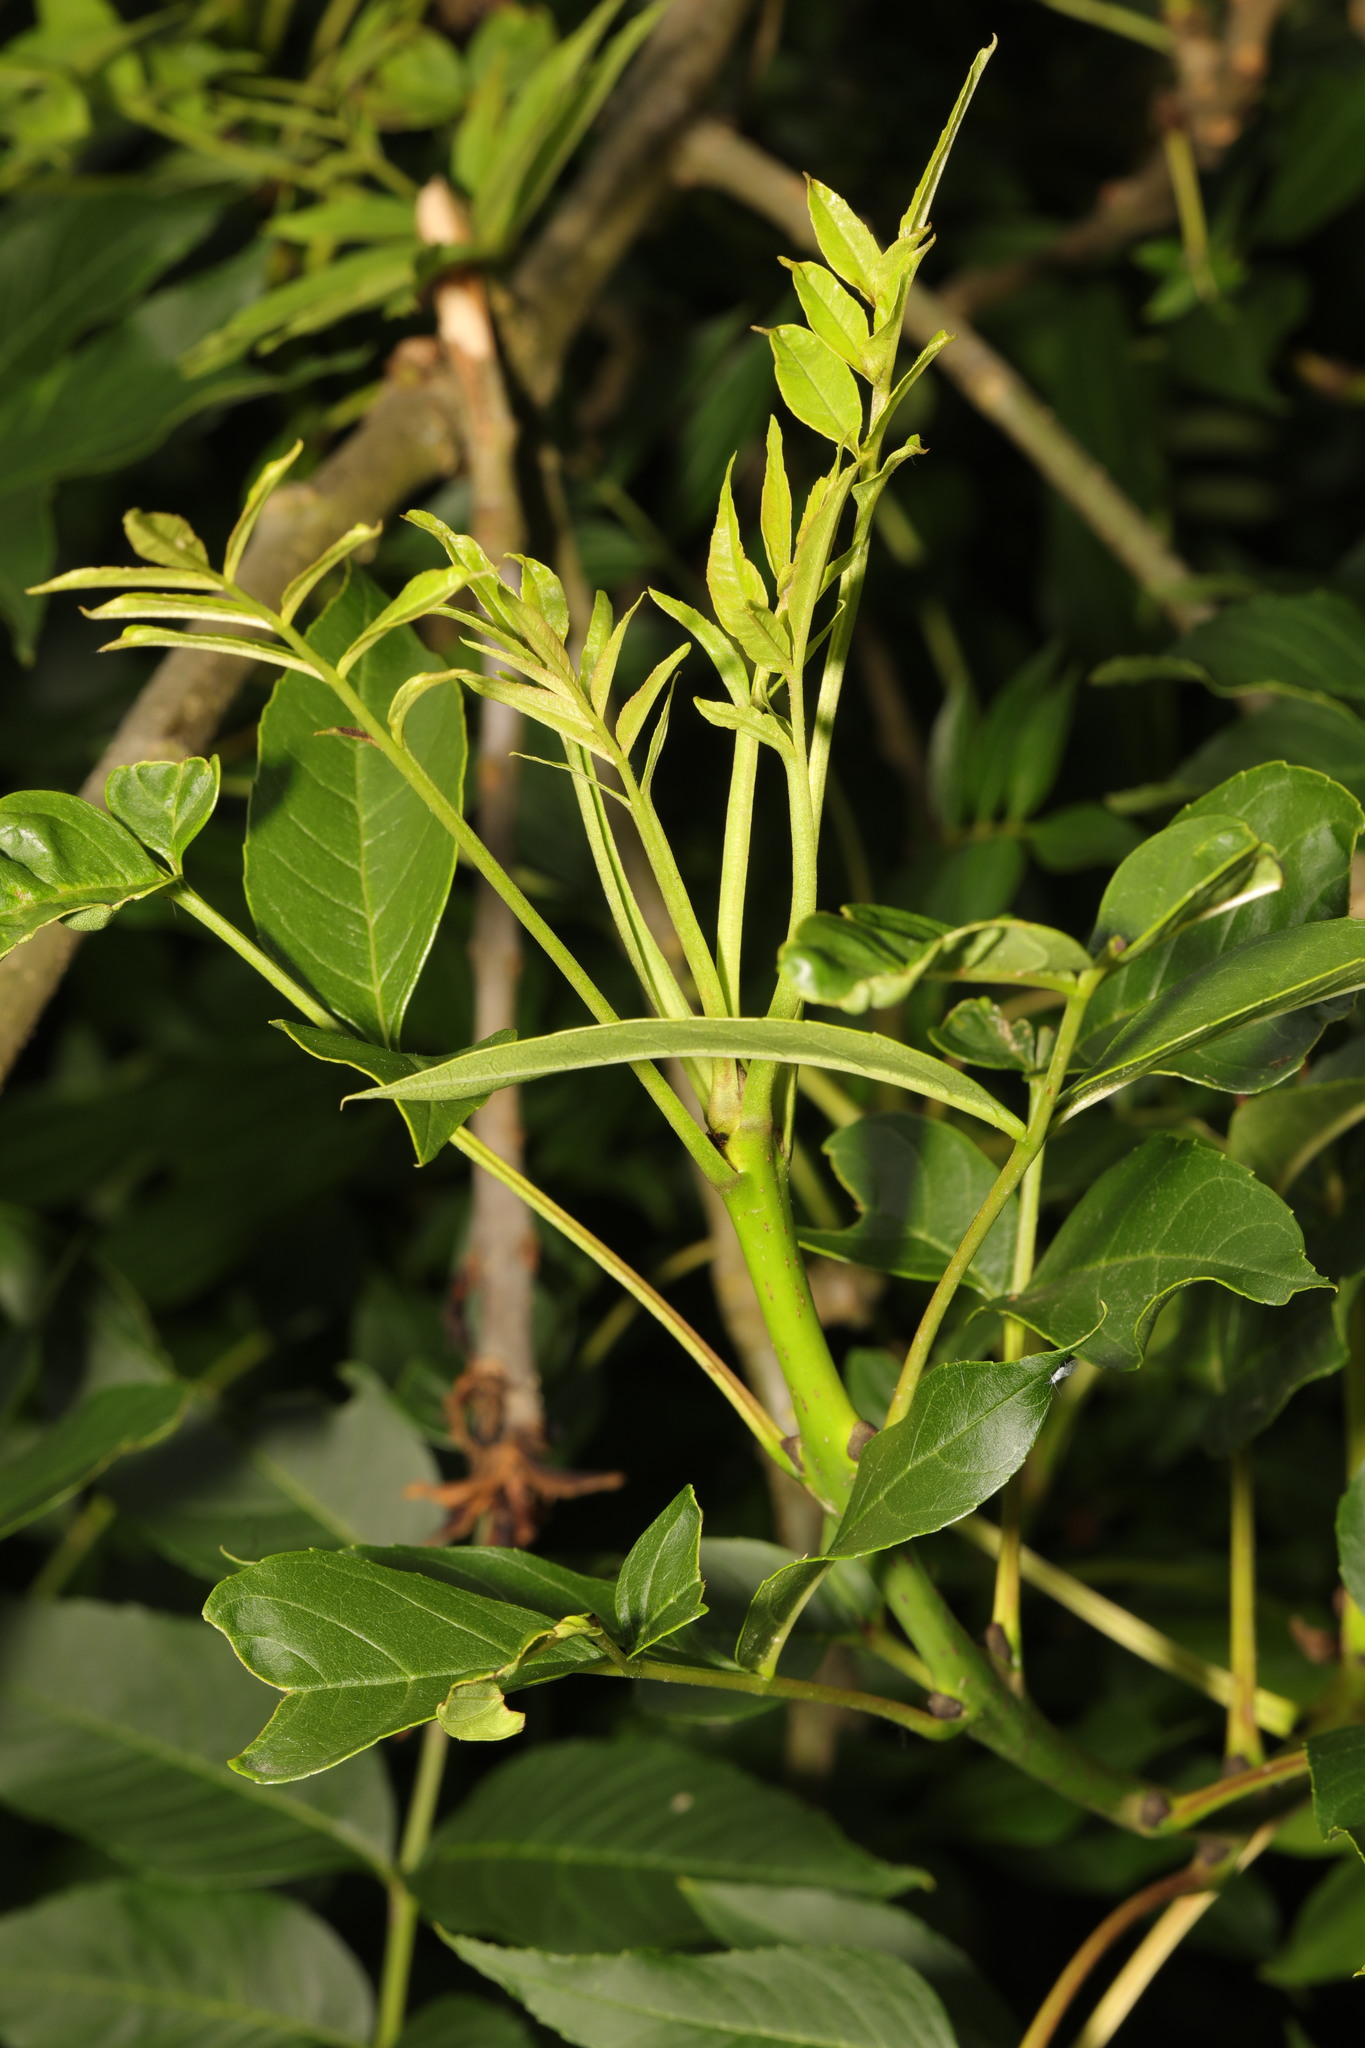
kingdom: Plantae
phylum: Tracheophyta
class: Magnoliopsida
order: Lamiales
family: Oleaceae
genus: Fraxinus
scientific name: Fraxinus excelsior
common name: European ash
